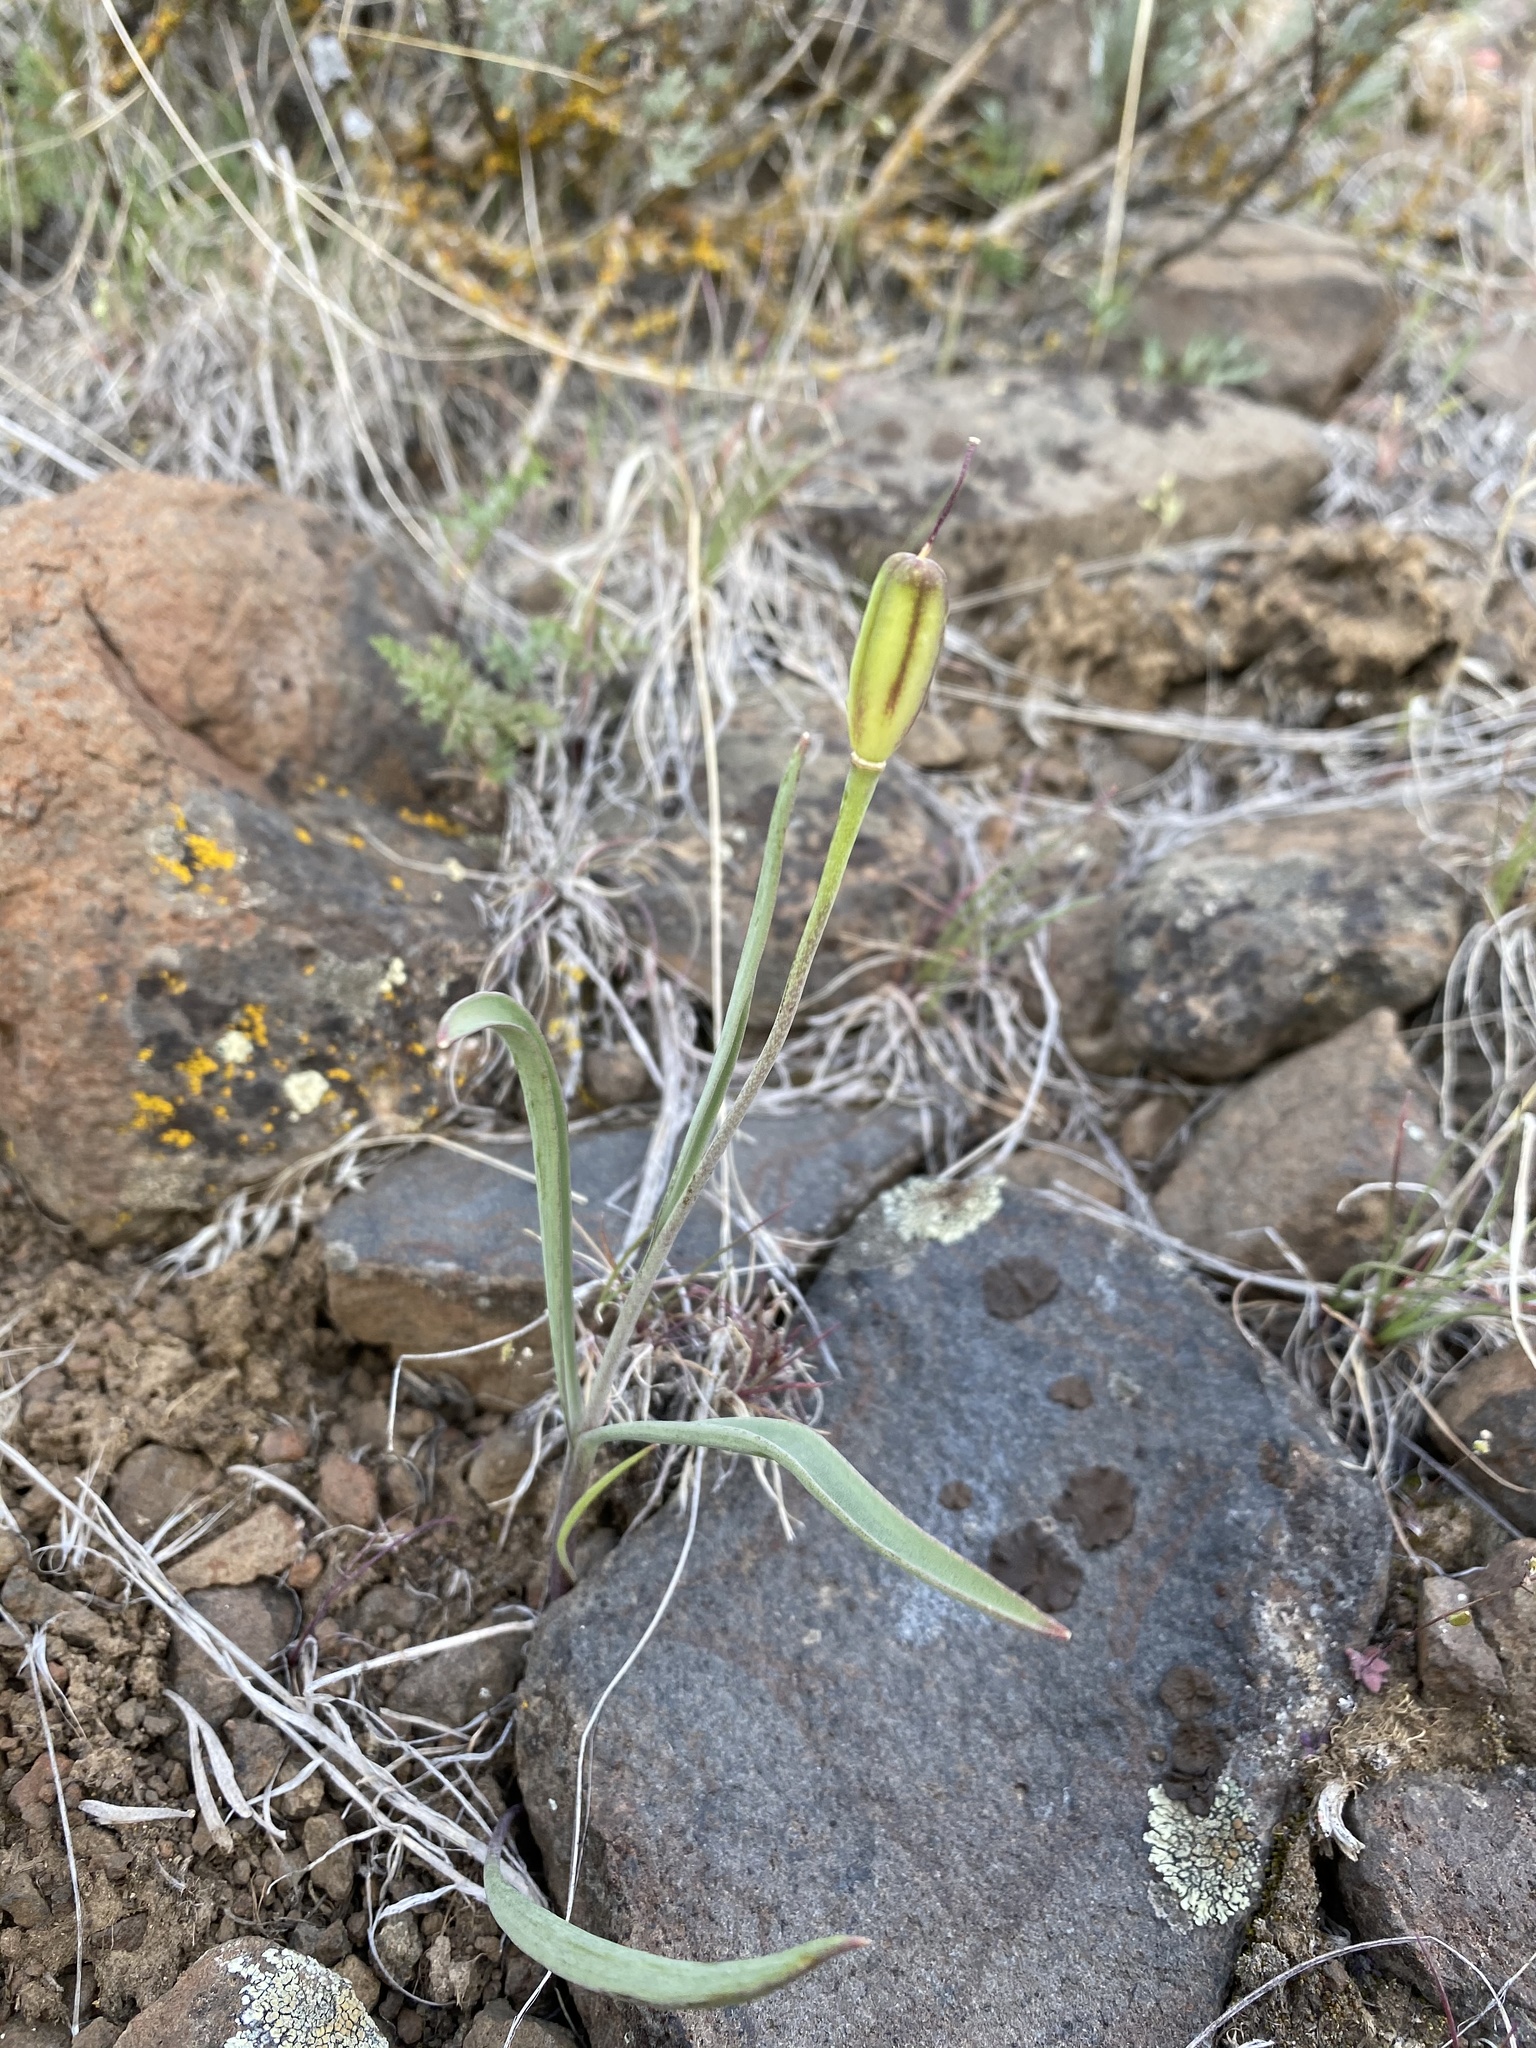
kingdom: Plantae
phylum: Tracheophyta
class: Liliopsida
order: Liliales
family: Liliaceae
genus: Fritillaria
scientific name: Fritillaria pudica
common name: Yellow fritillary
